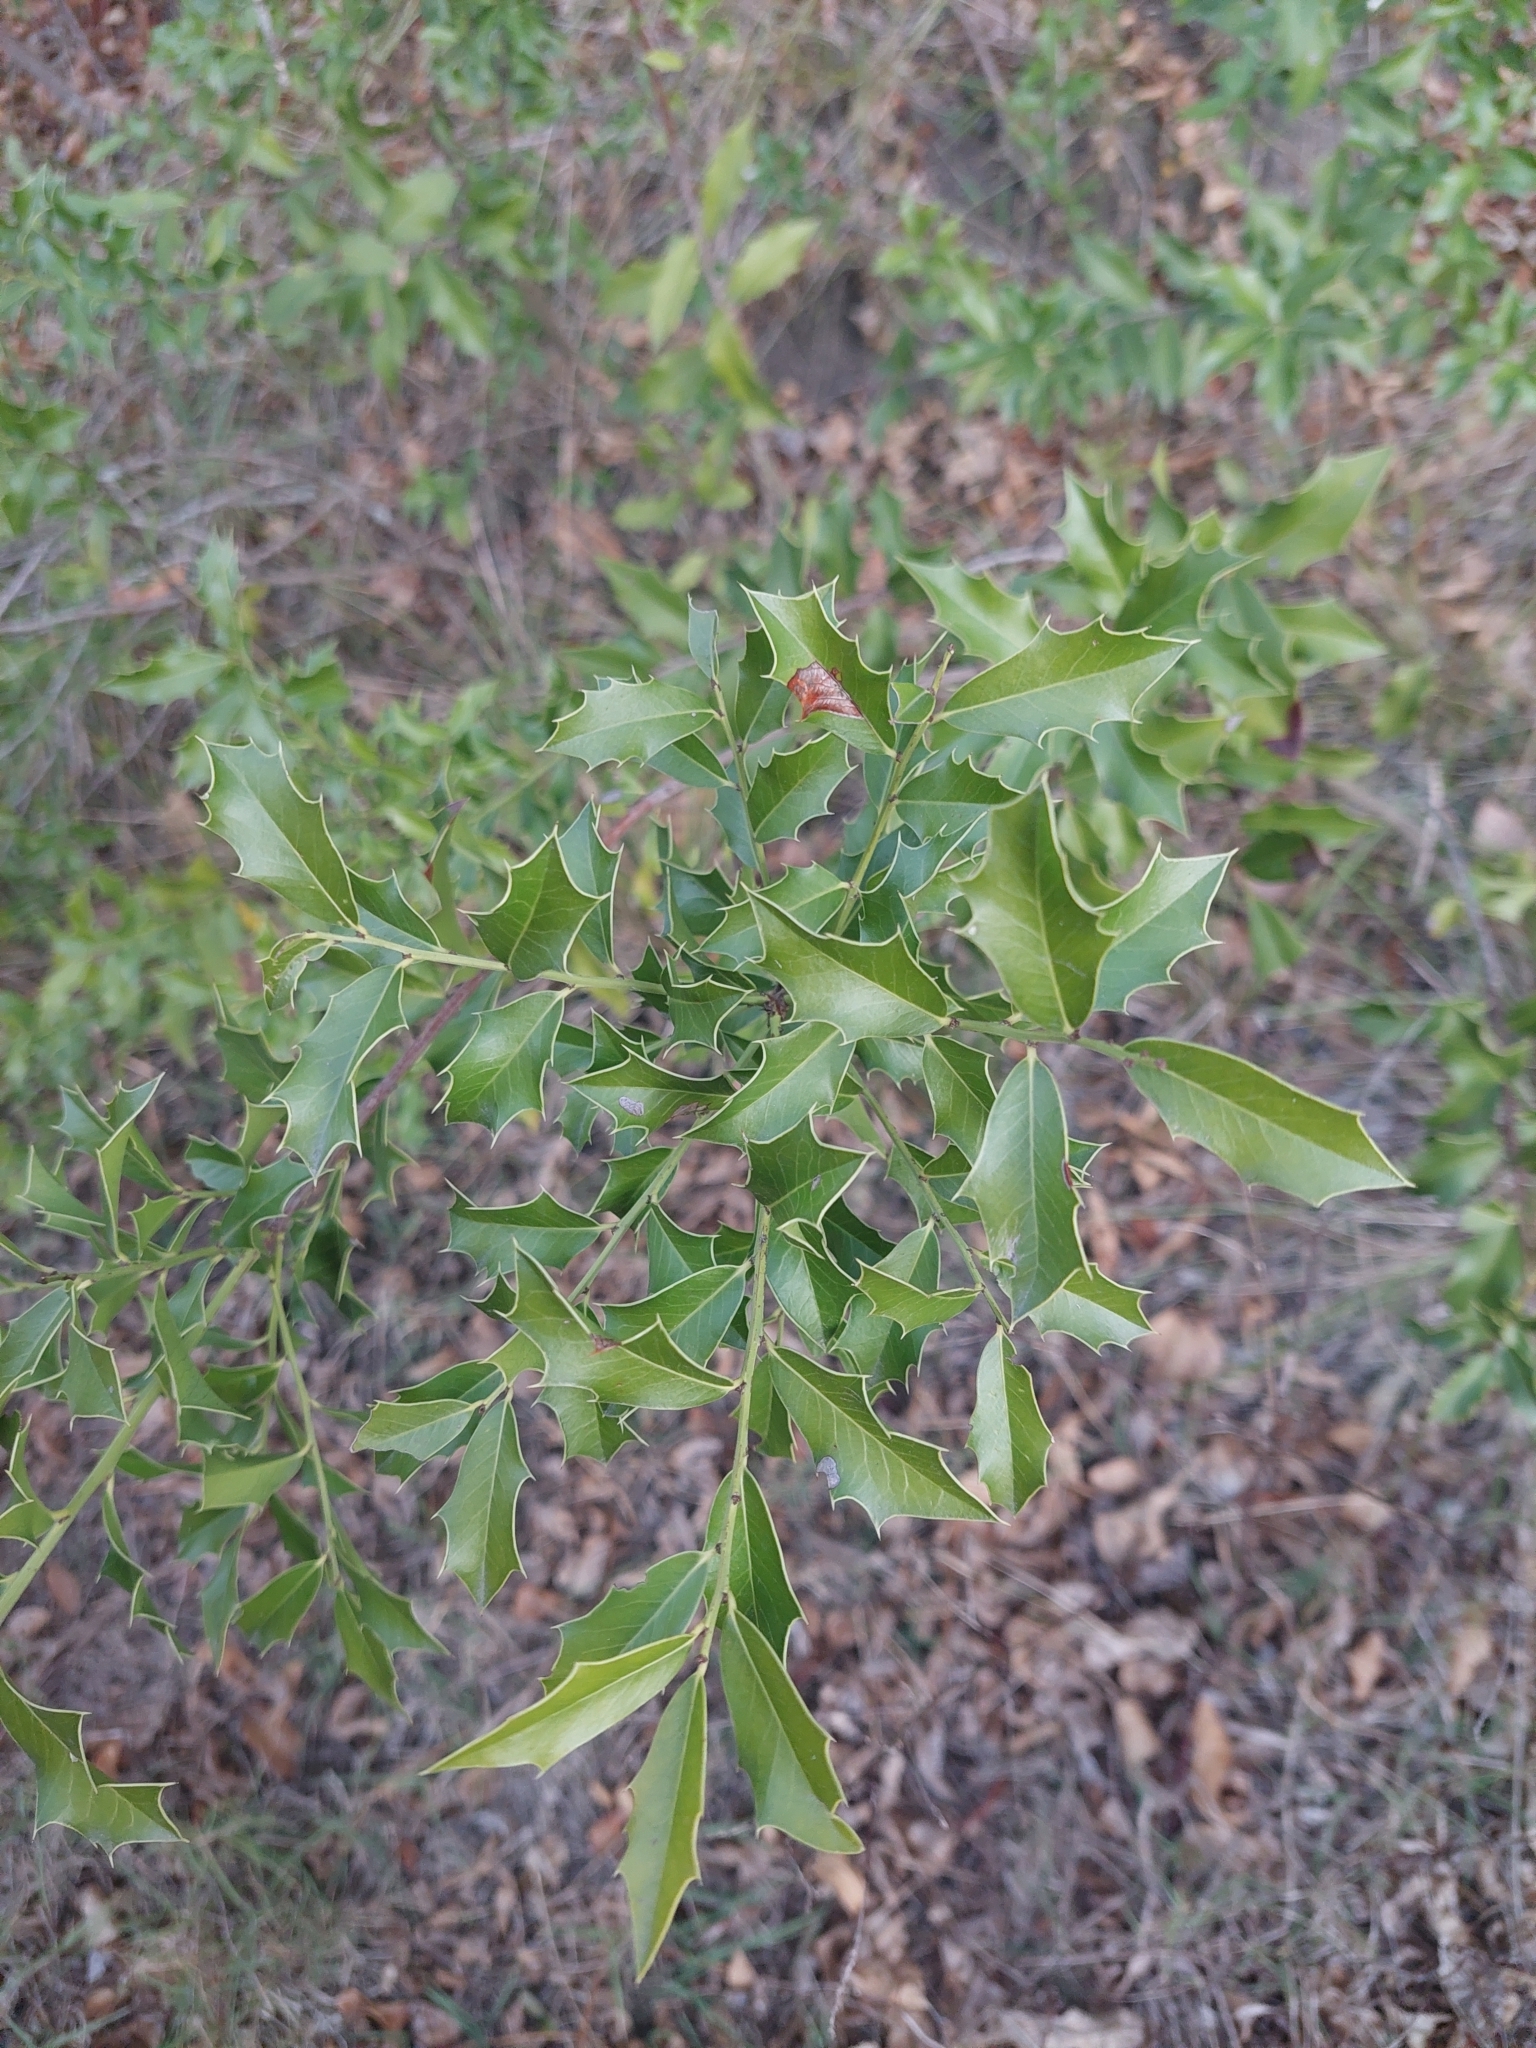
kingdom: Plantae
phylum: Tracheophyta
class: Magnoliopsida
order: Celastrales
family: Celastraceae
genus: Monteverdia
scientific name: Monteverdia
